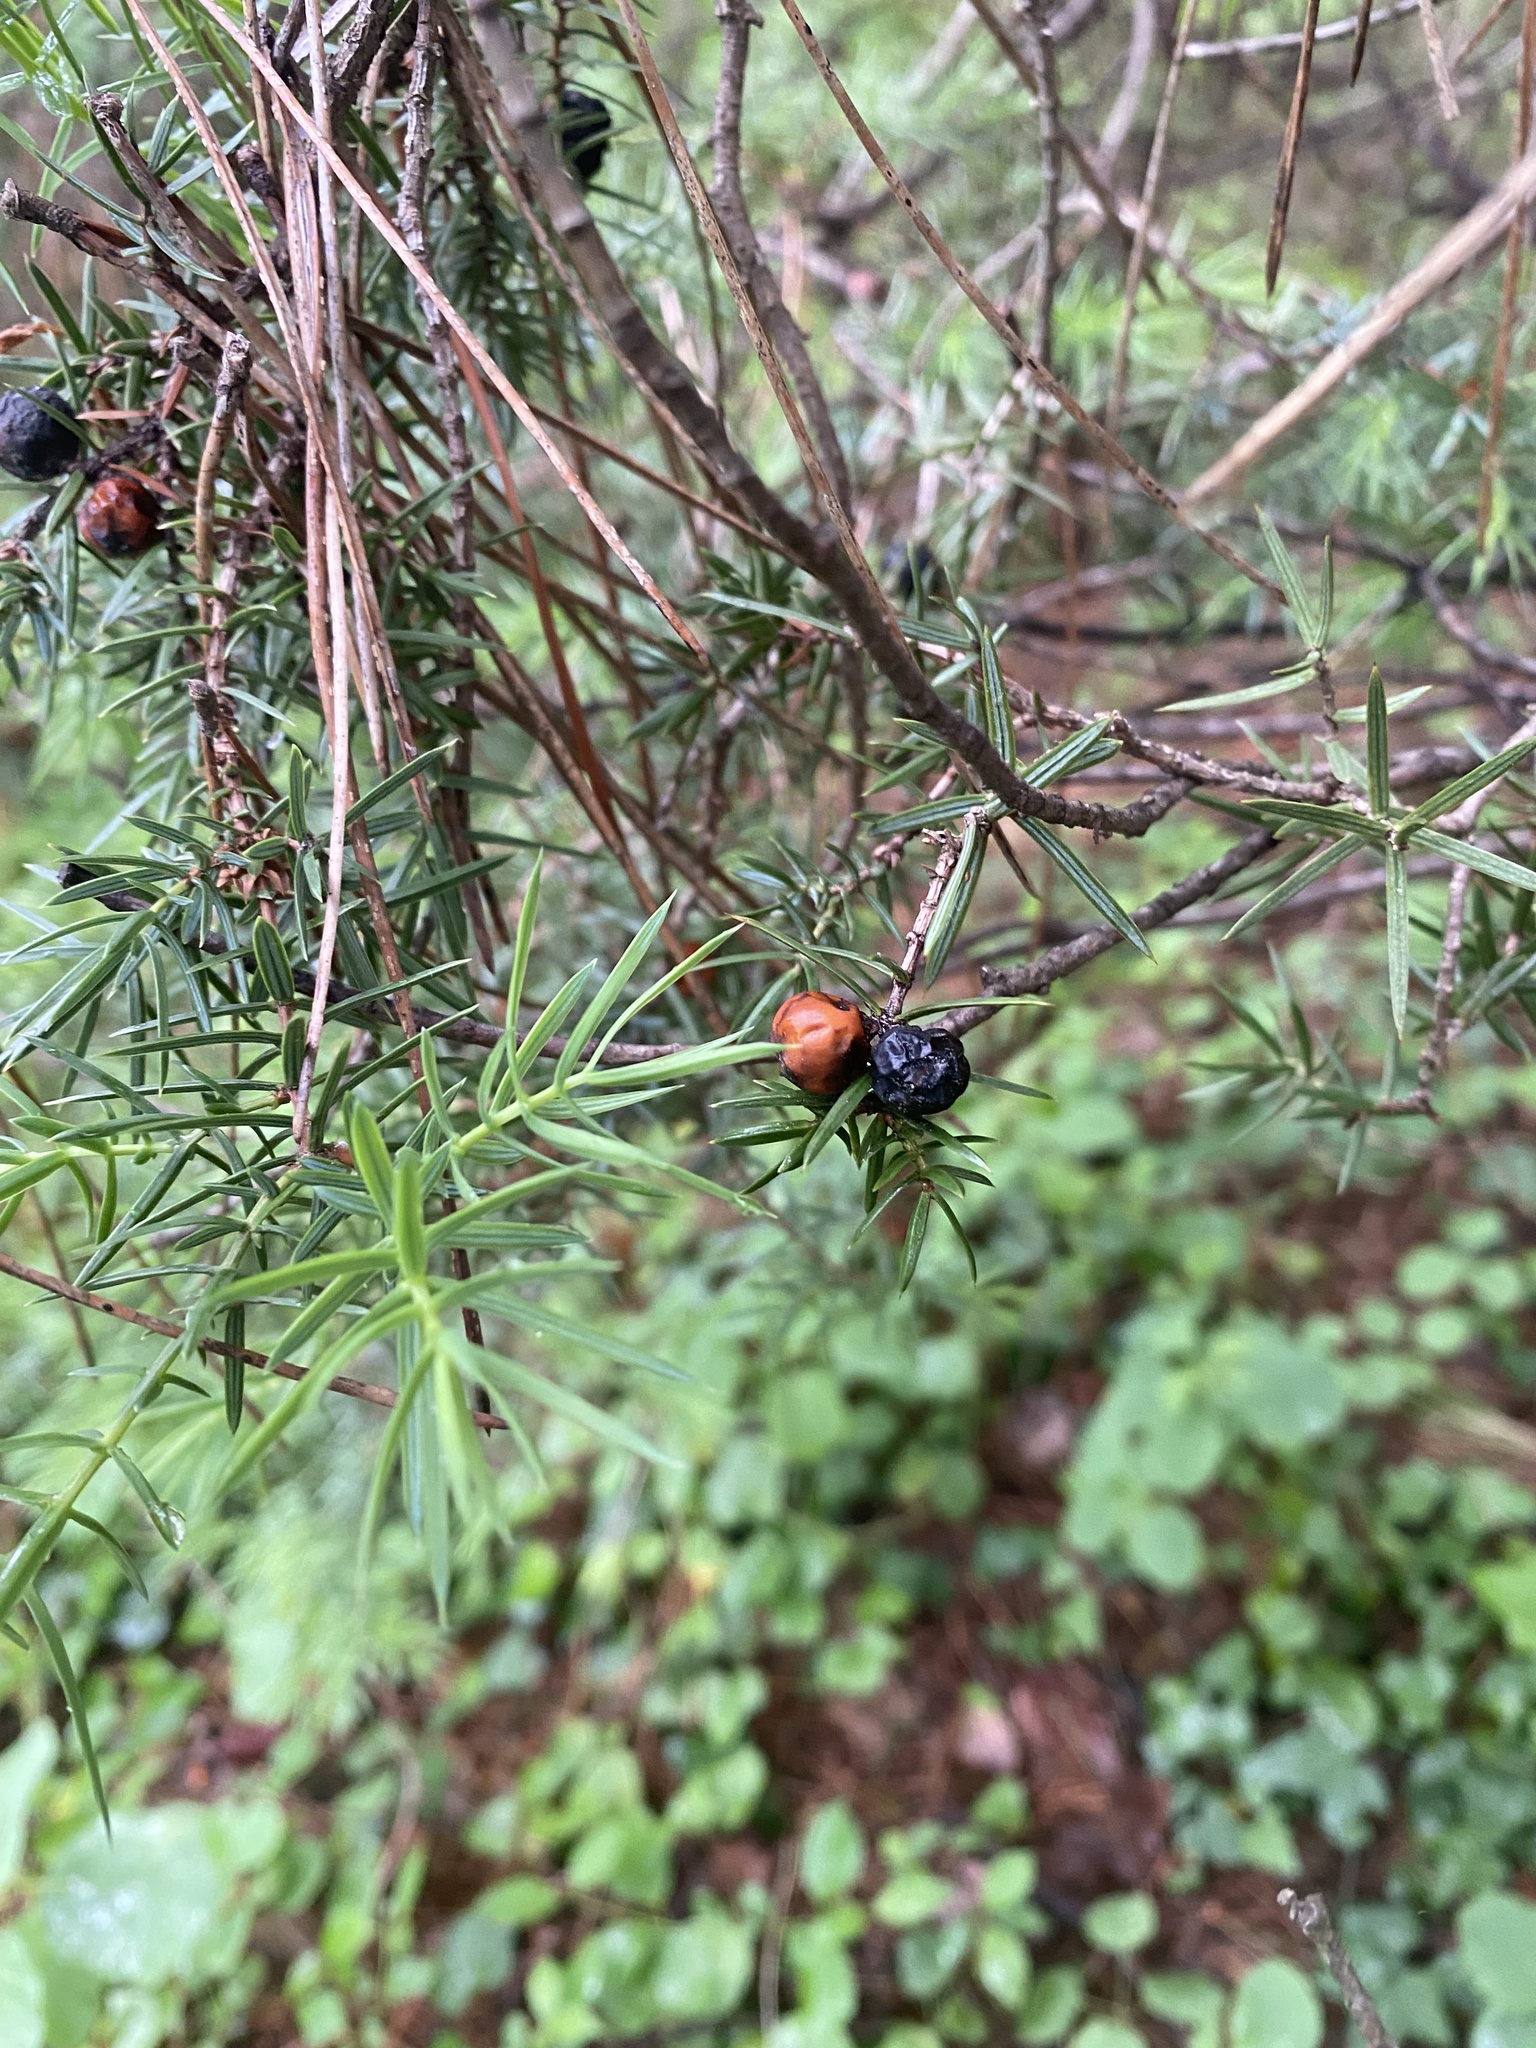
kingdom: Plantae
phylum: Tracheophyta
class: Pinopsida
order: Pinales
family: Cupressaceae
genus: Juniperus
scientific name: Juniperus oxycedrus
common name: Prickly juniper
